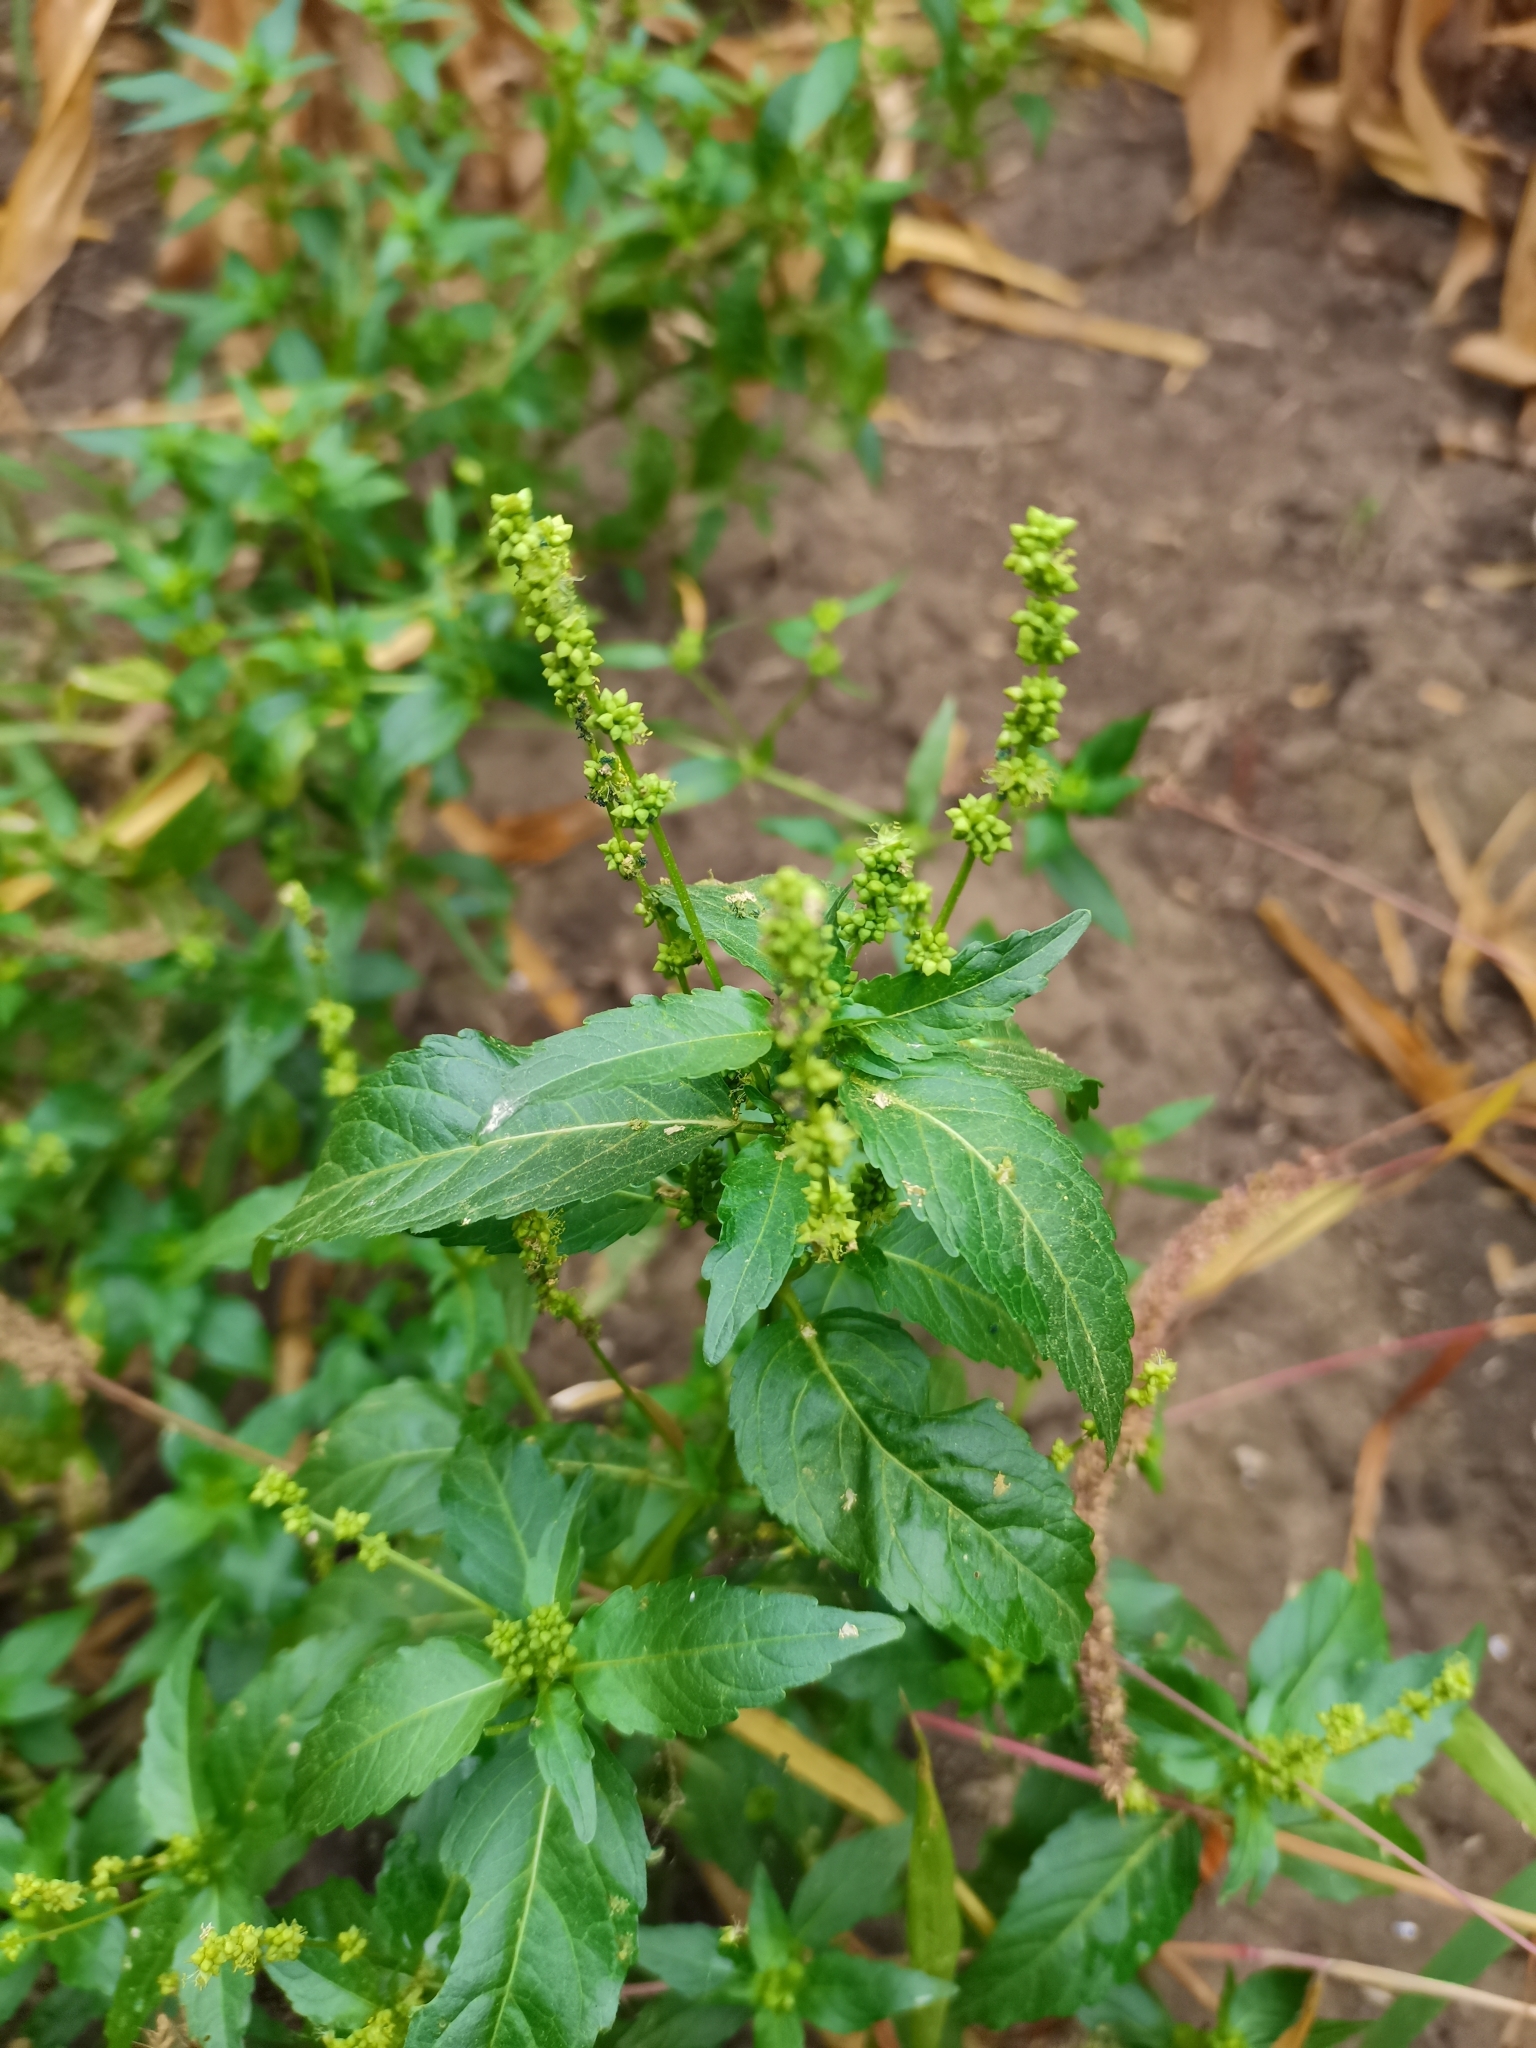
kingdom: Plantae
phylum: Tracheophyta
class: Magnoliopsida
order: Malpighiales
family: Euphorbiaceae
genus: Mercurialis
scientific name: Mercurialis annua
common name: Annual mercury
